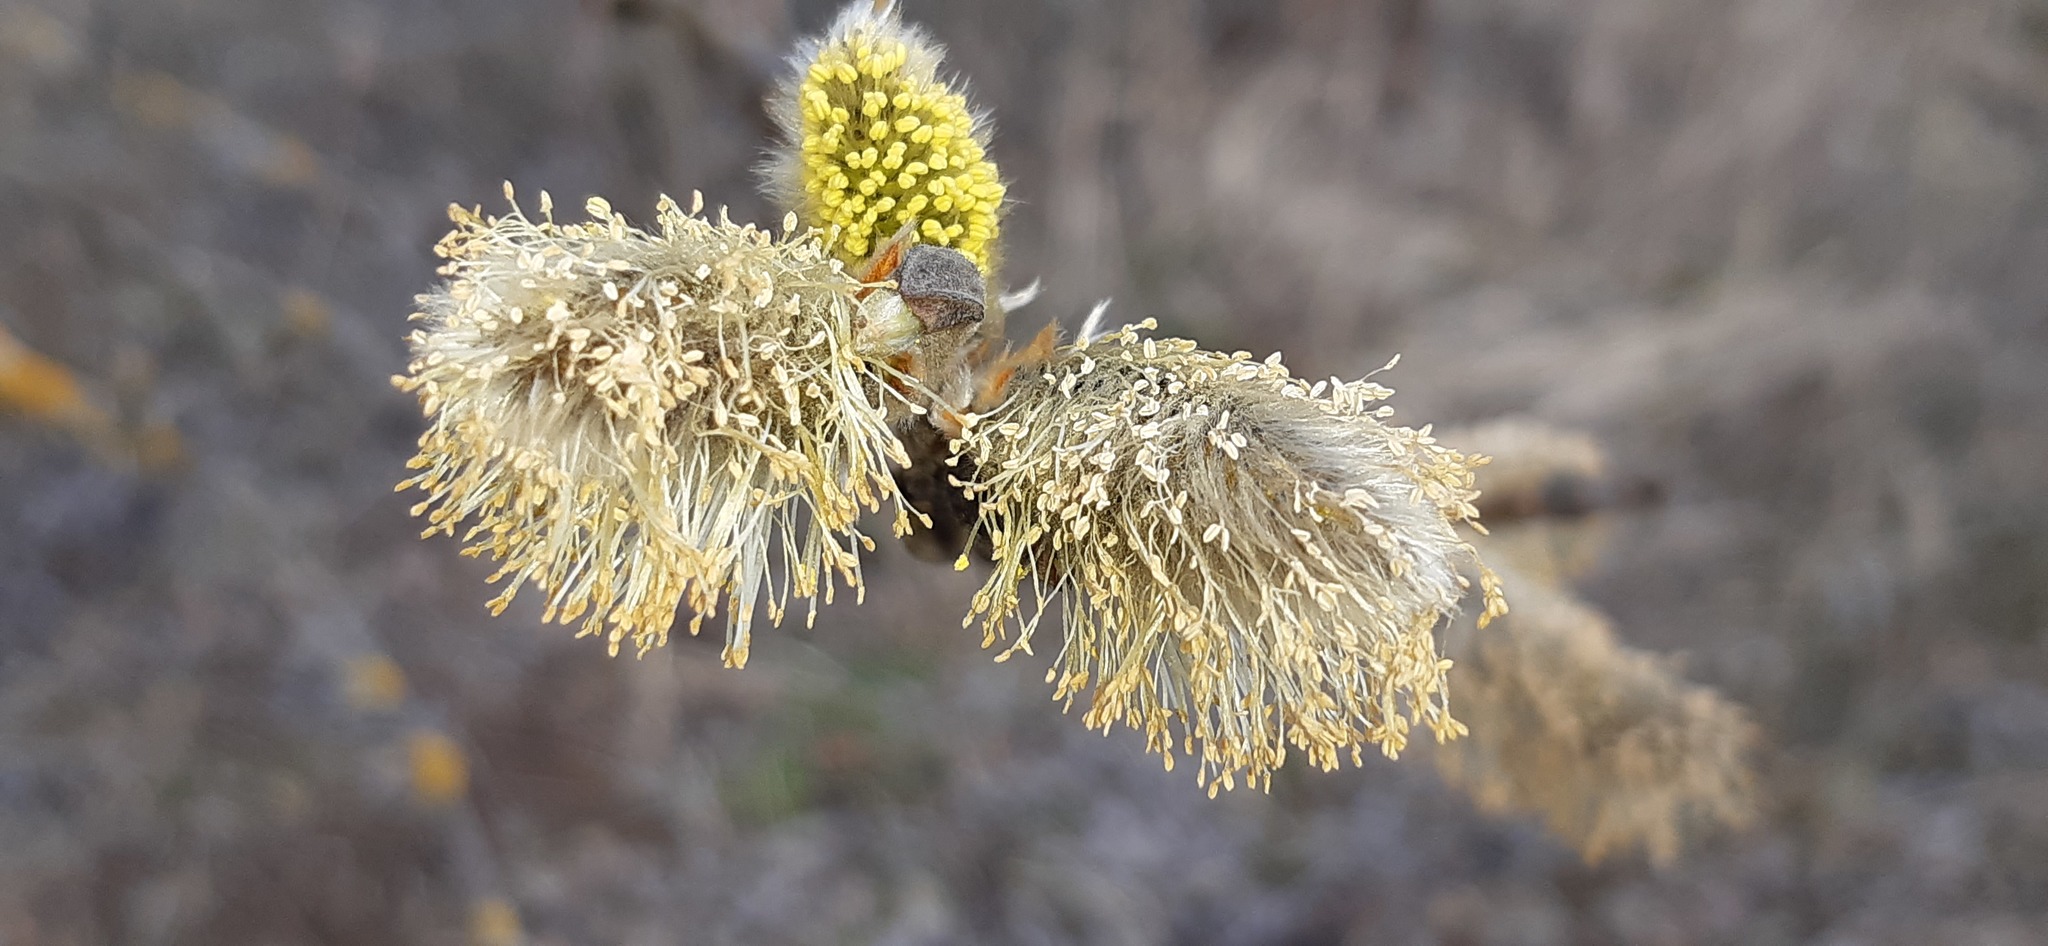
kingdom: Plantae
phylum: Tracheophyta
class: Magnoliopsida
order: Malpighiales
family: Salicaceae
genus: Salix
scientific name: Salix caprea
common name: Goat willow
